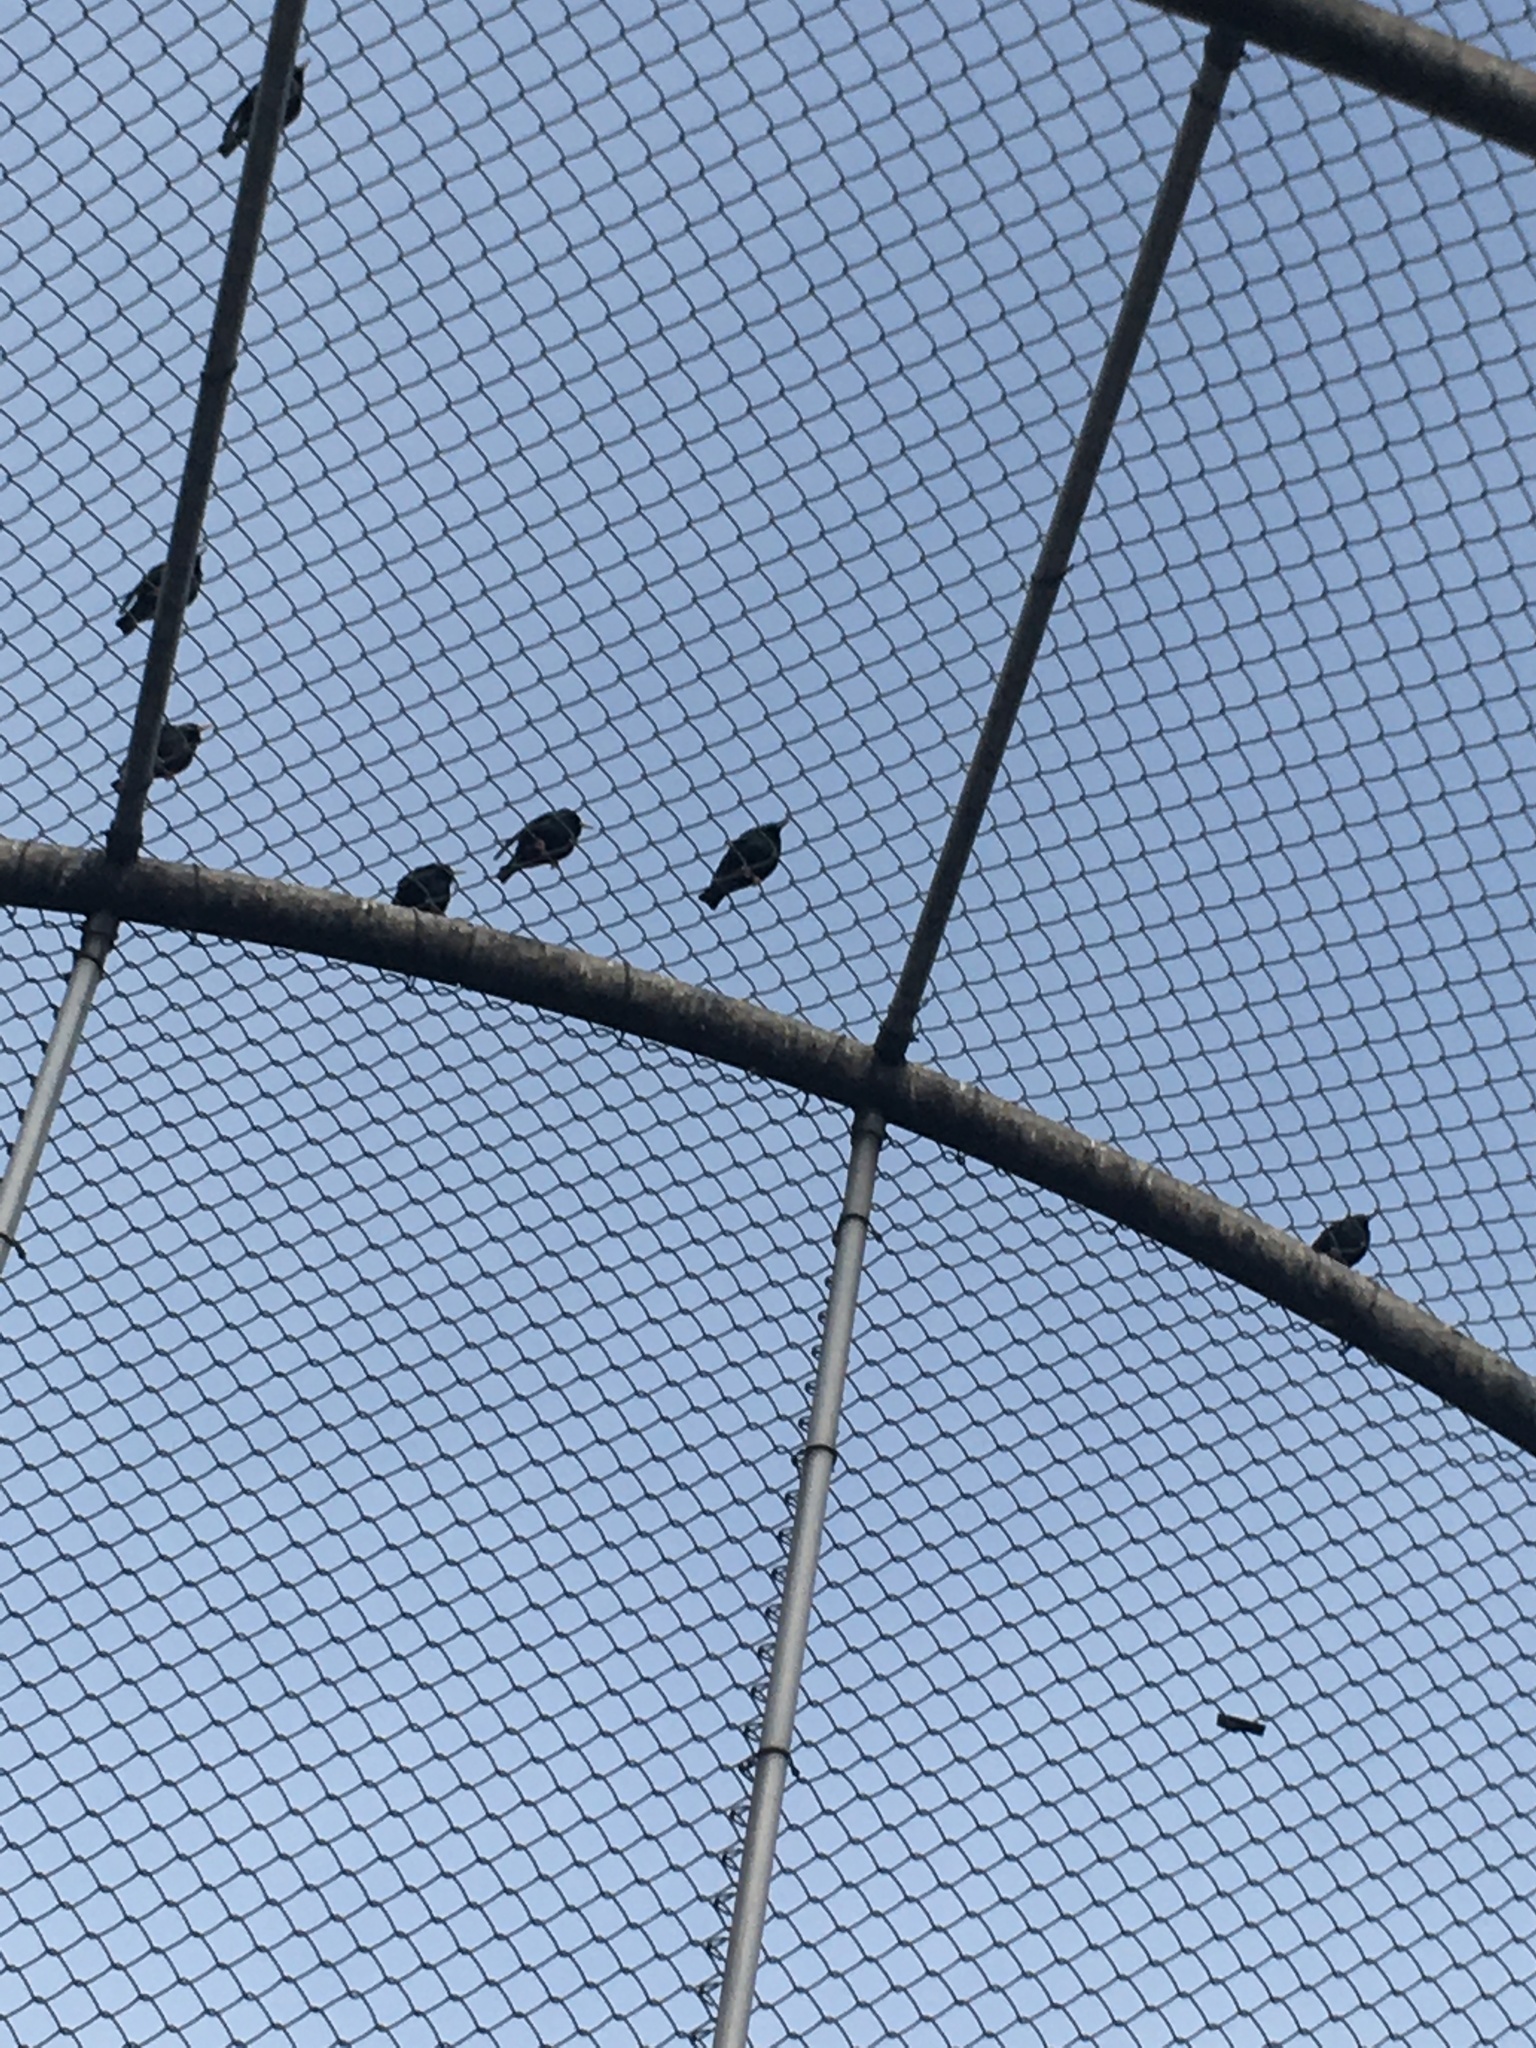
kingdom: Animalia
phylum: Chordata
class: Aves
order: Passeriformes
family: Sturnidae
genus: Sturnus
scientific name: Sturnus vulgaris
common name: Common starling
